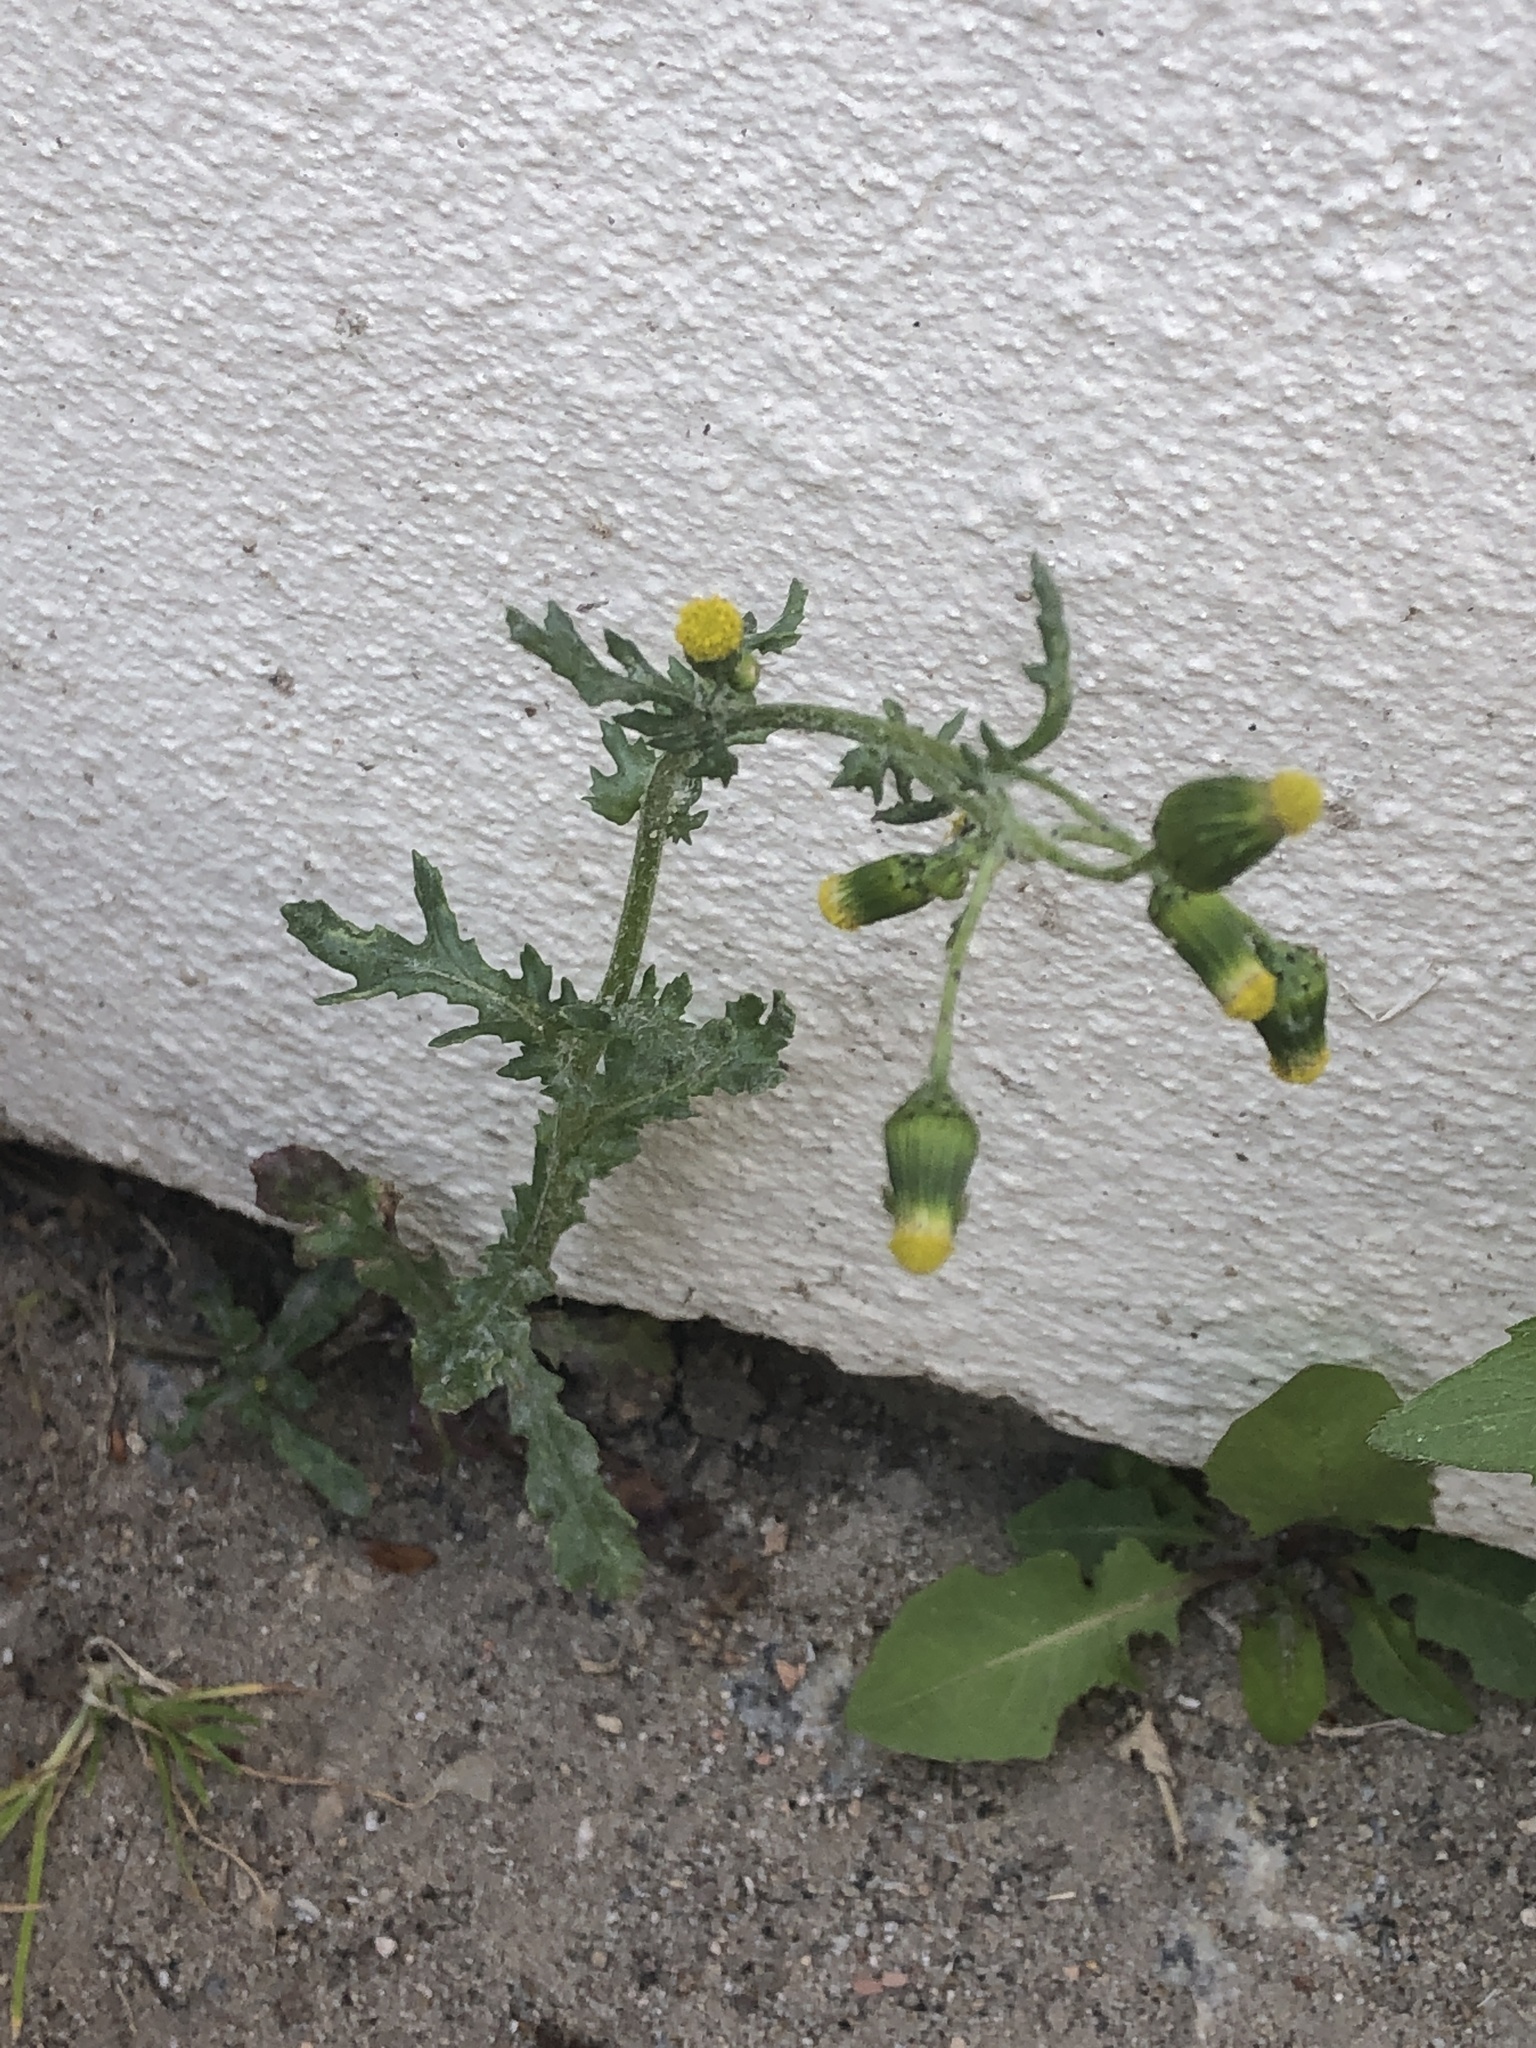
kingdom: Plantae
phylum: Tracheophyta
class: Magnoliopsida
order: Asterales
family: Asteraceae
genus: Senecio
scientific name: Senecio vulgaris
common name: Old-man-in-the-spring
